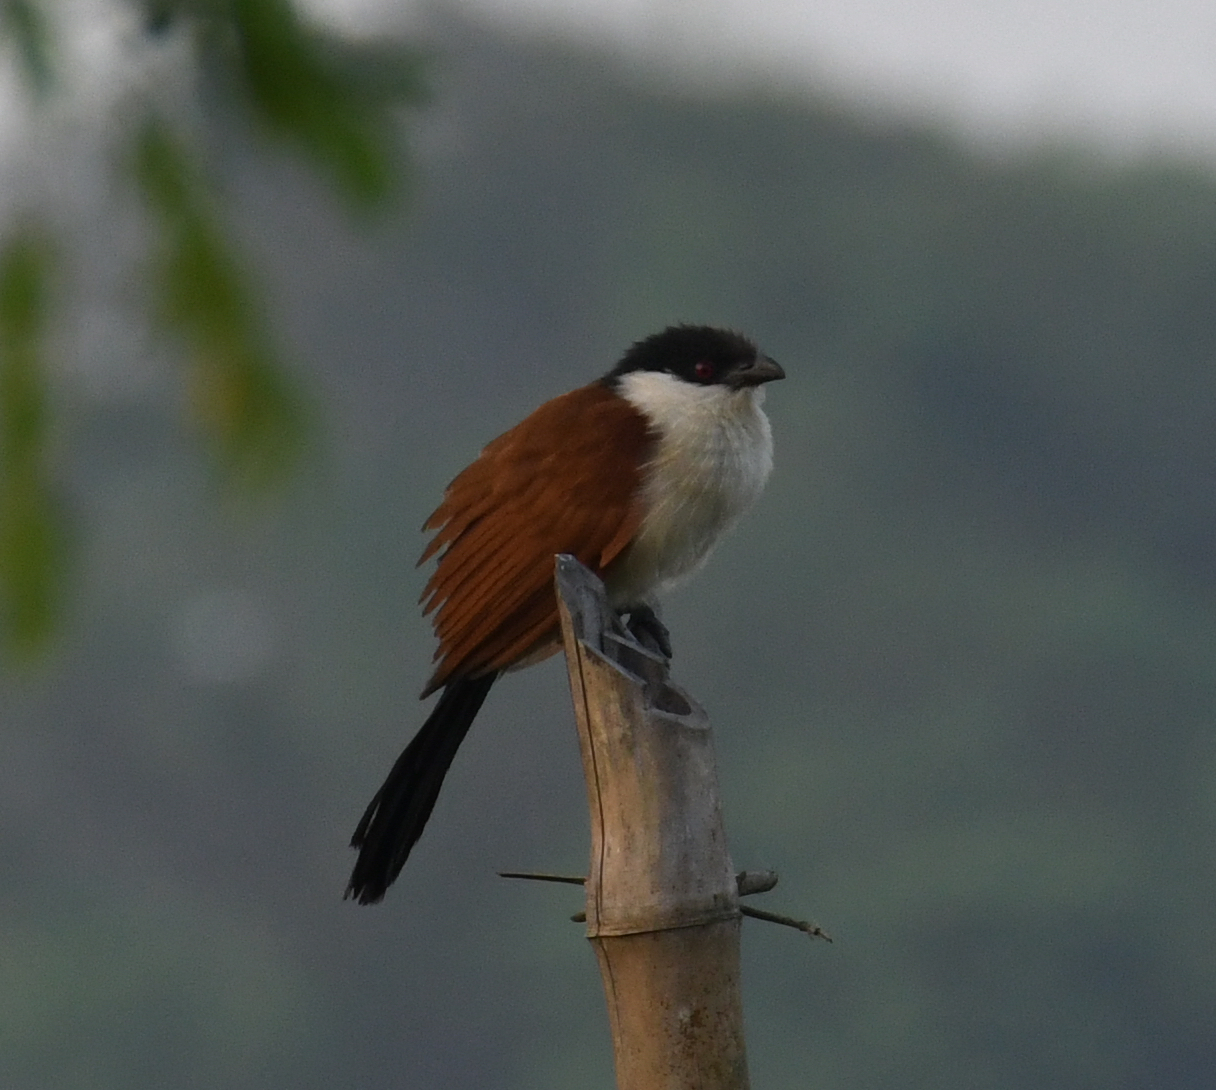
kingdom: Animalia
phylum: Chordata
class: Aves
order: Cuculiformes
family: Cuculidae
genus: Centropus
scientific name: Centropus senegalensis
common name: Senegal coucal
